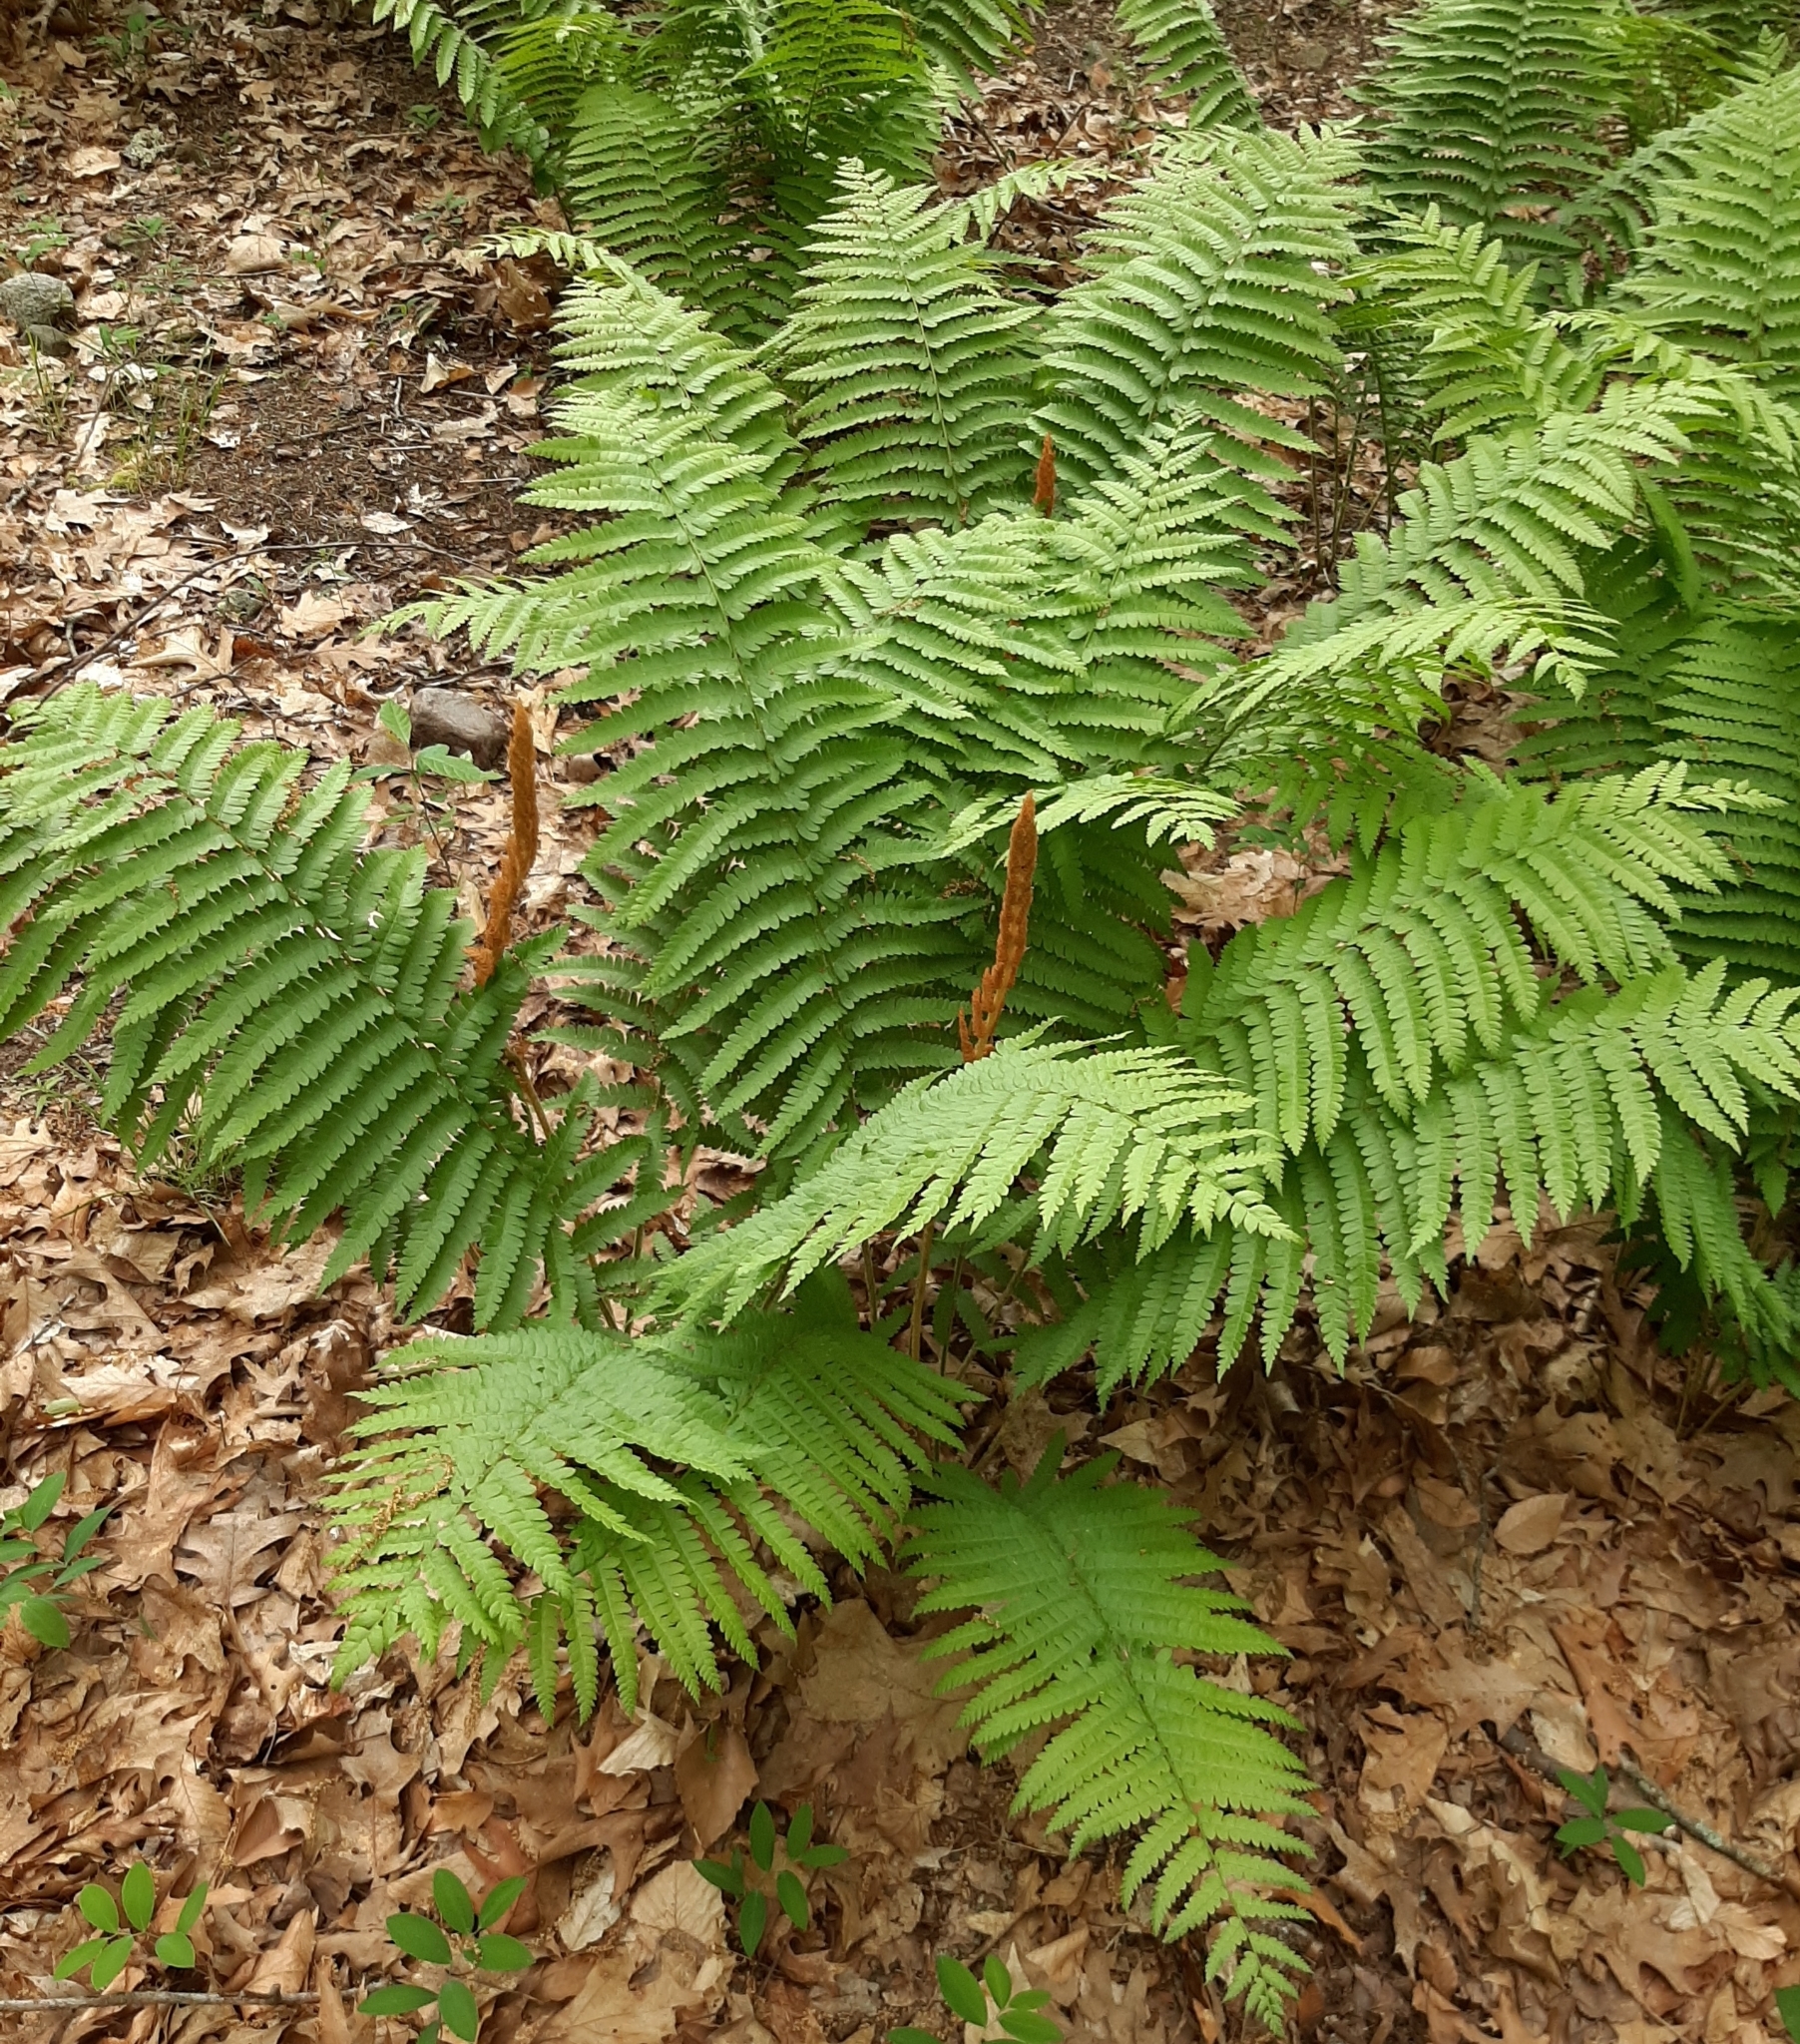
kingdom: Plantae
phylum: Tracheophyta
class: Polypodiopsida
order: Osmundales
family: Osmundaceae
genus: Osmundastrum
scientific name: Osmundastrum cinnamomeum
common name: Cinnamon fern
